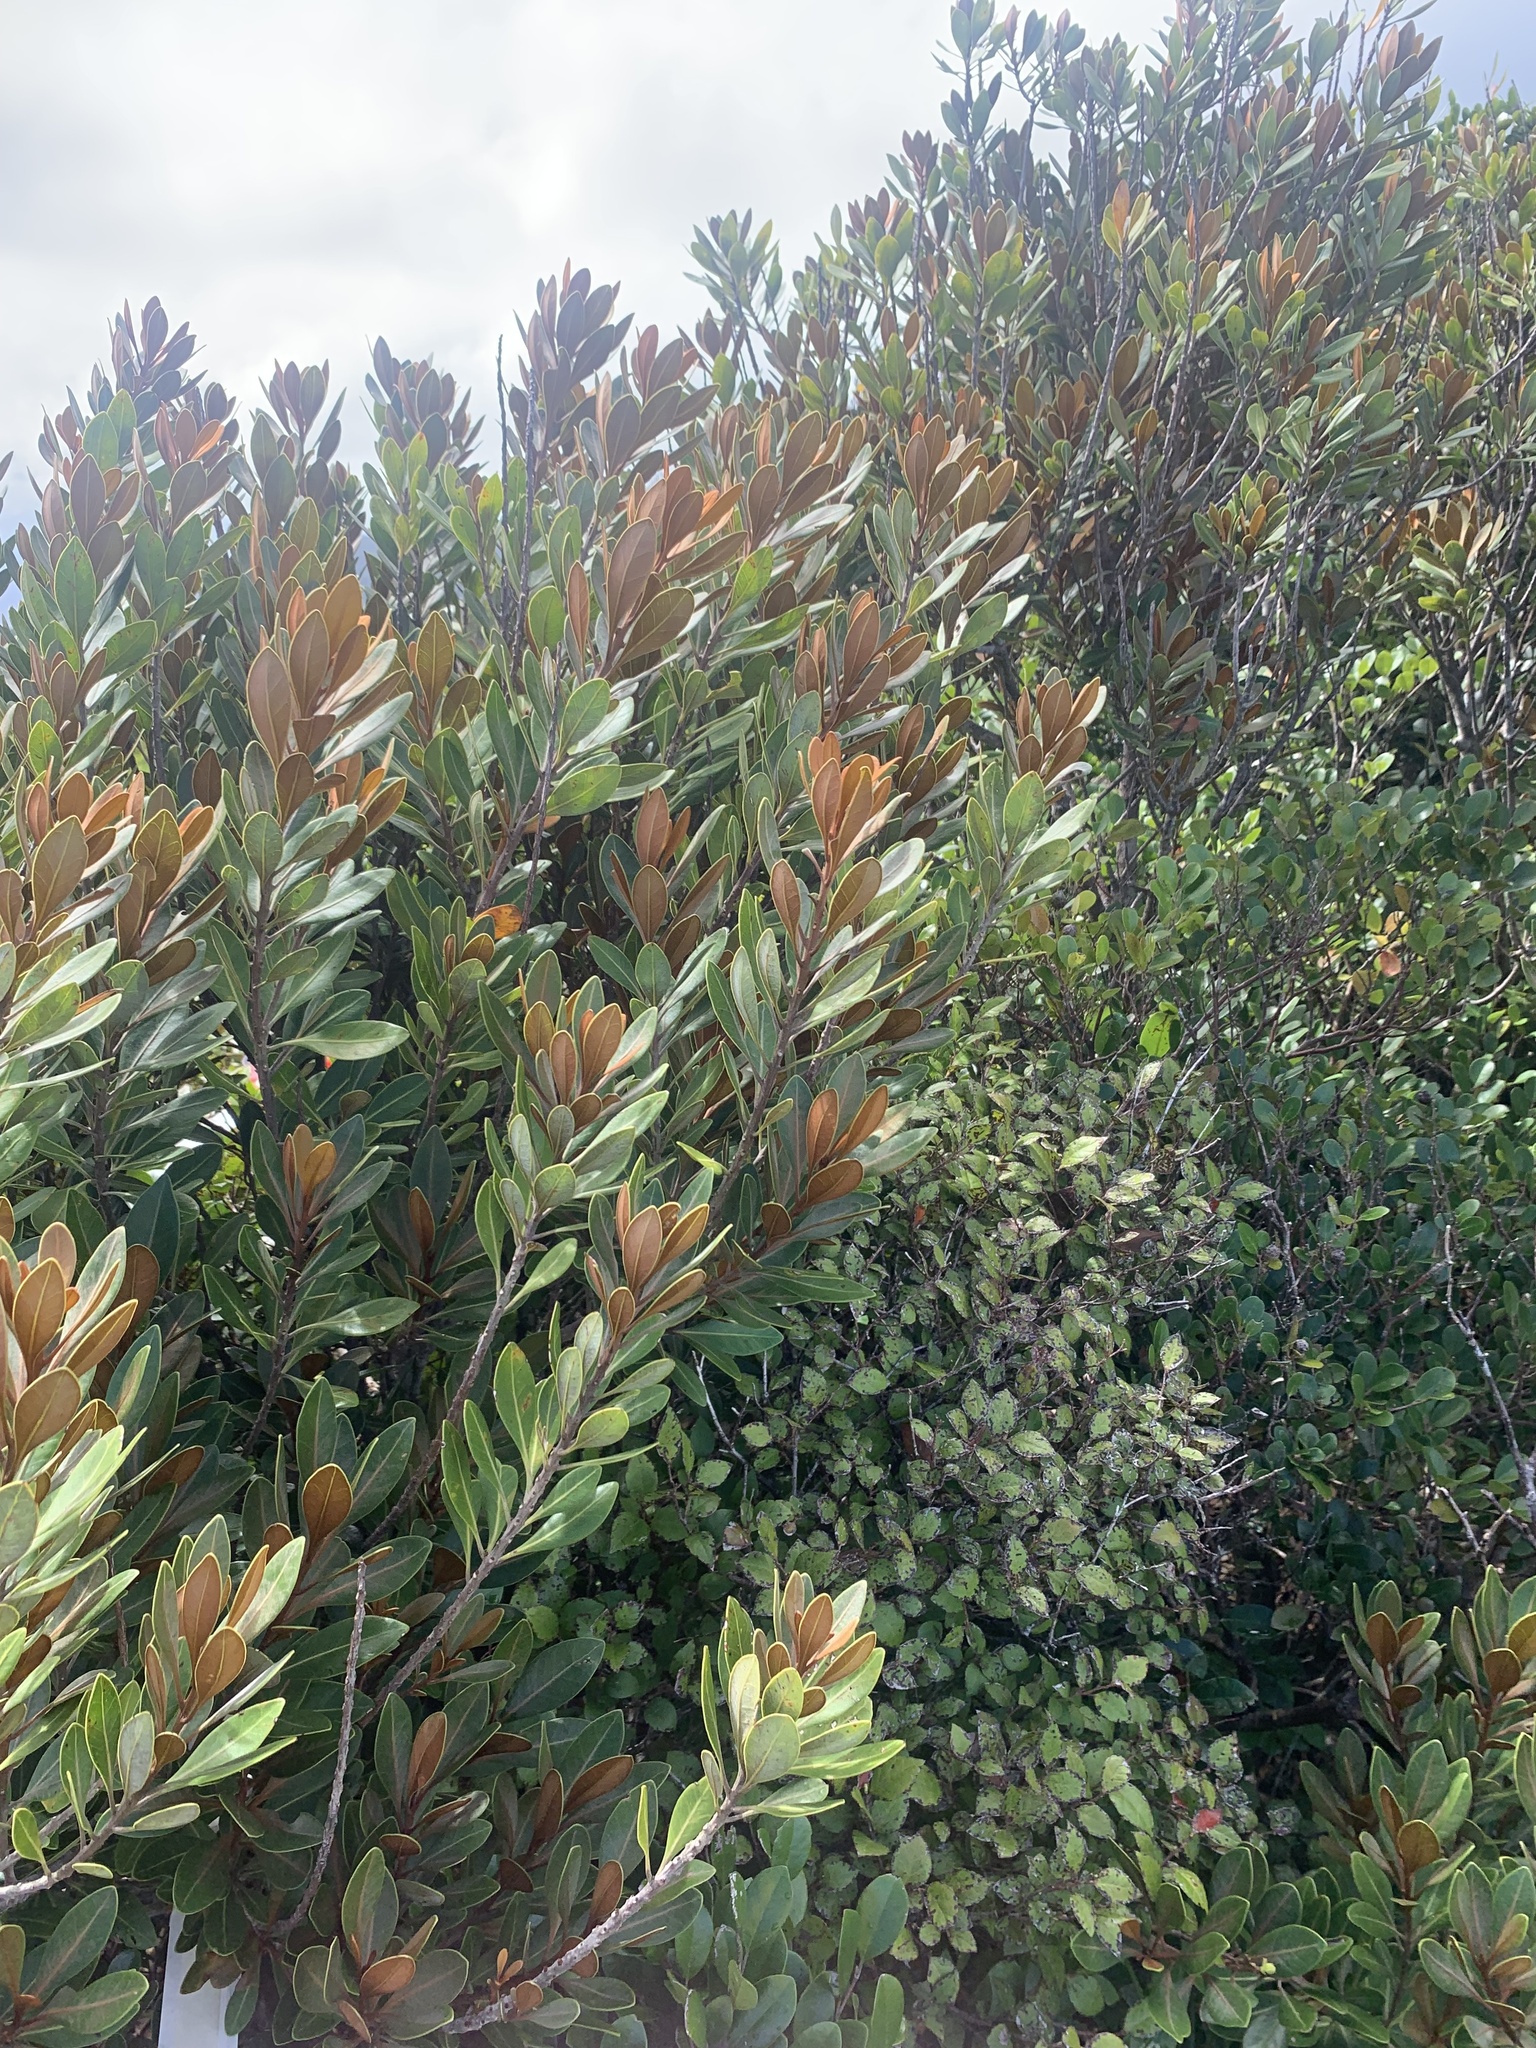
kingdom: Plantae
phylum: Tracheophyta
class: Magnoliopsida
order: Ericales
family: Sapotaceae
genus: Planchonella
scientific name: Planchonella obovata
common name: Black-ash
